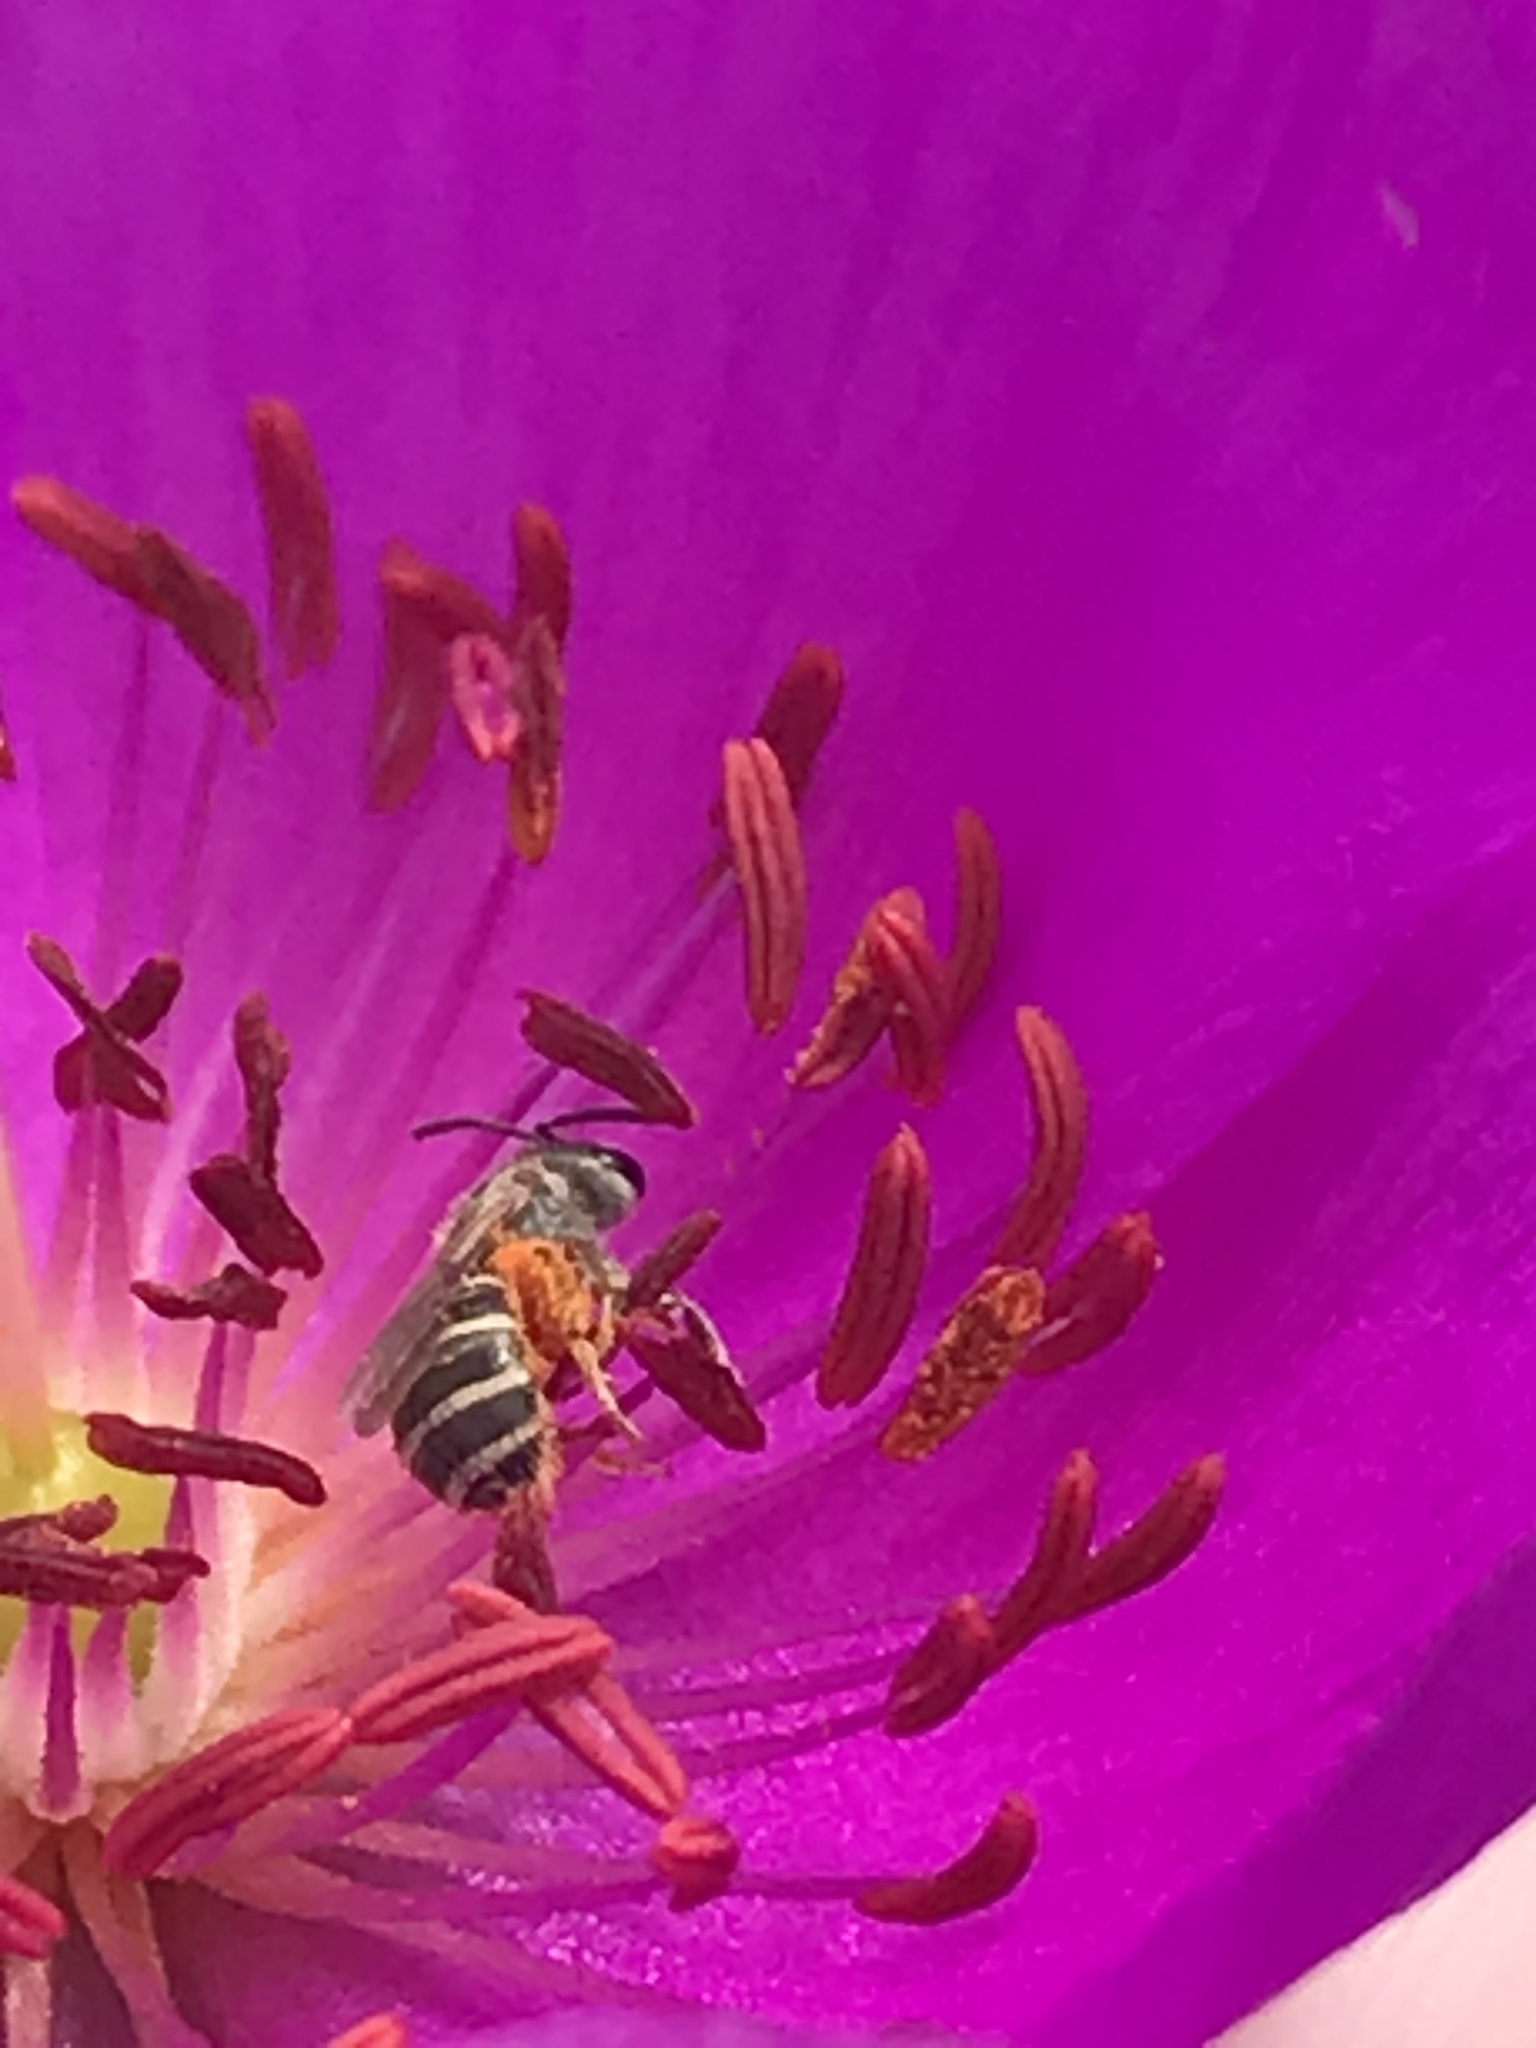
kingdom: Animalia
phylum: Arthropoda
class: Insecta
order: Hymenoptera
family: Halictidae
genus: Halictus
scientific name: Halictus ligatus
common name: Ligated furrow bee
